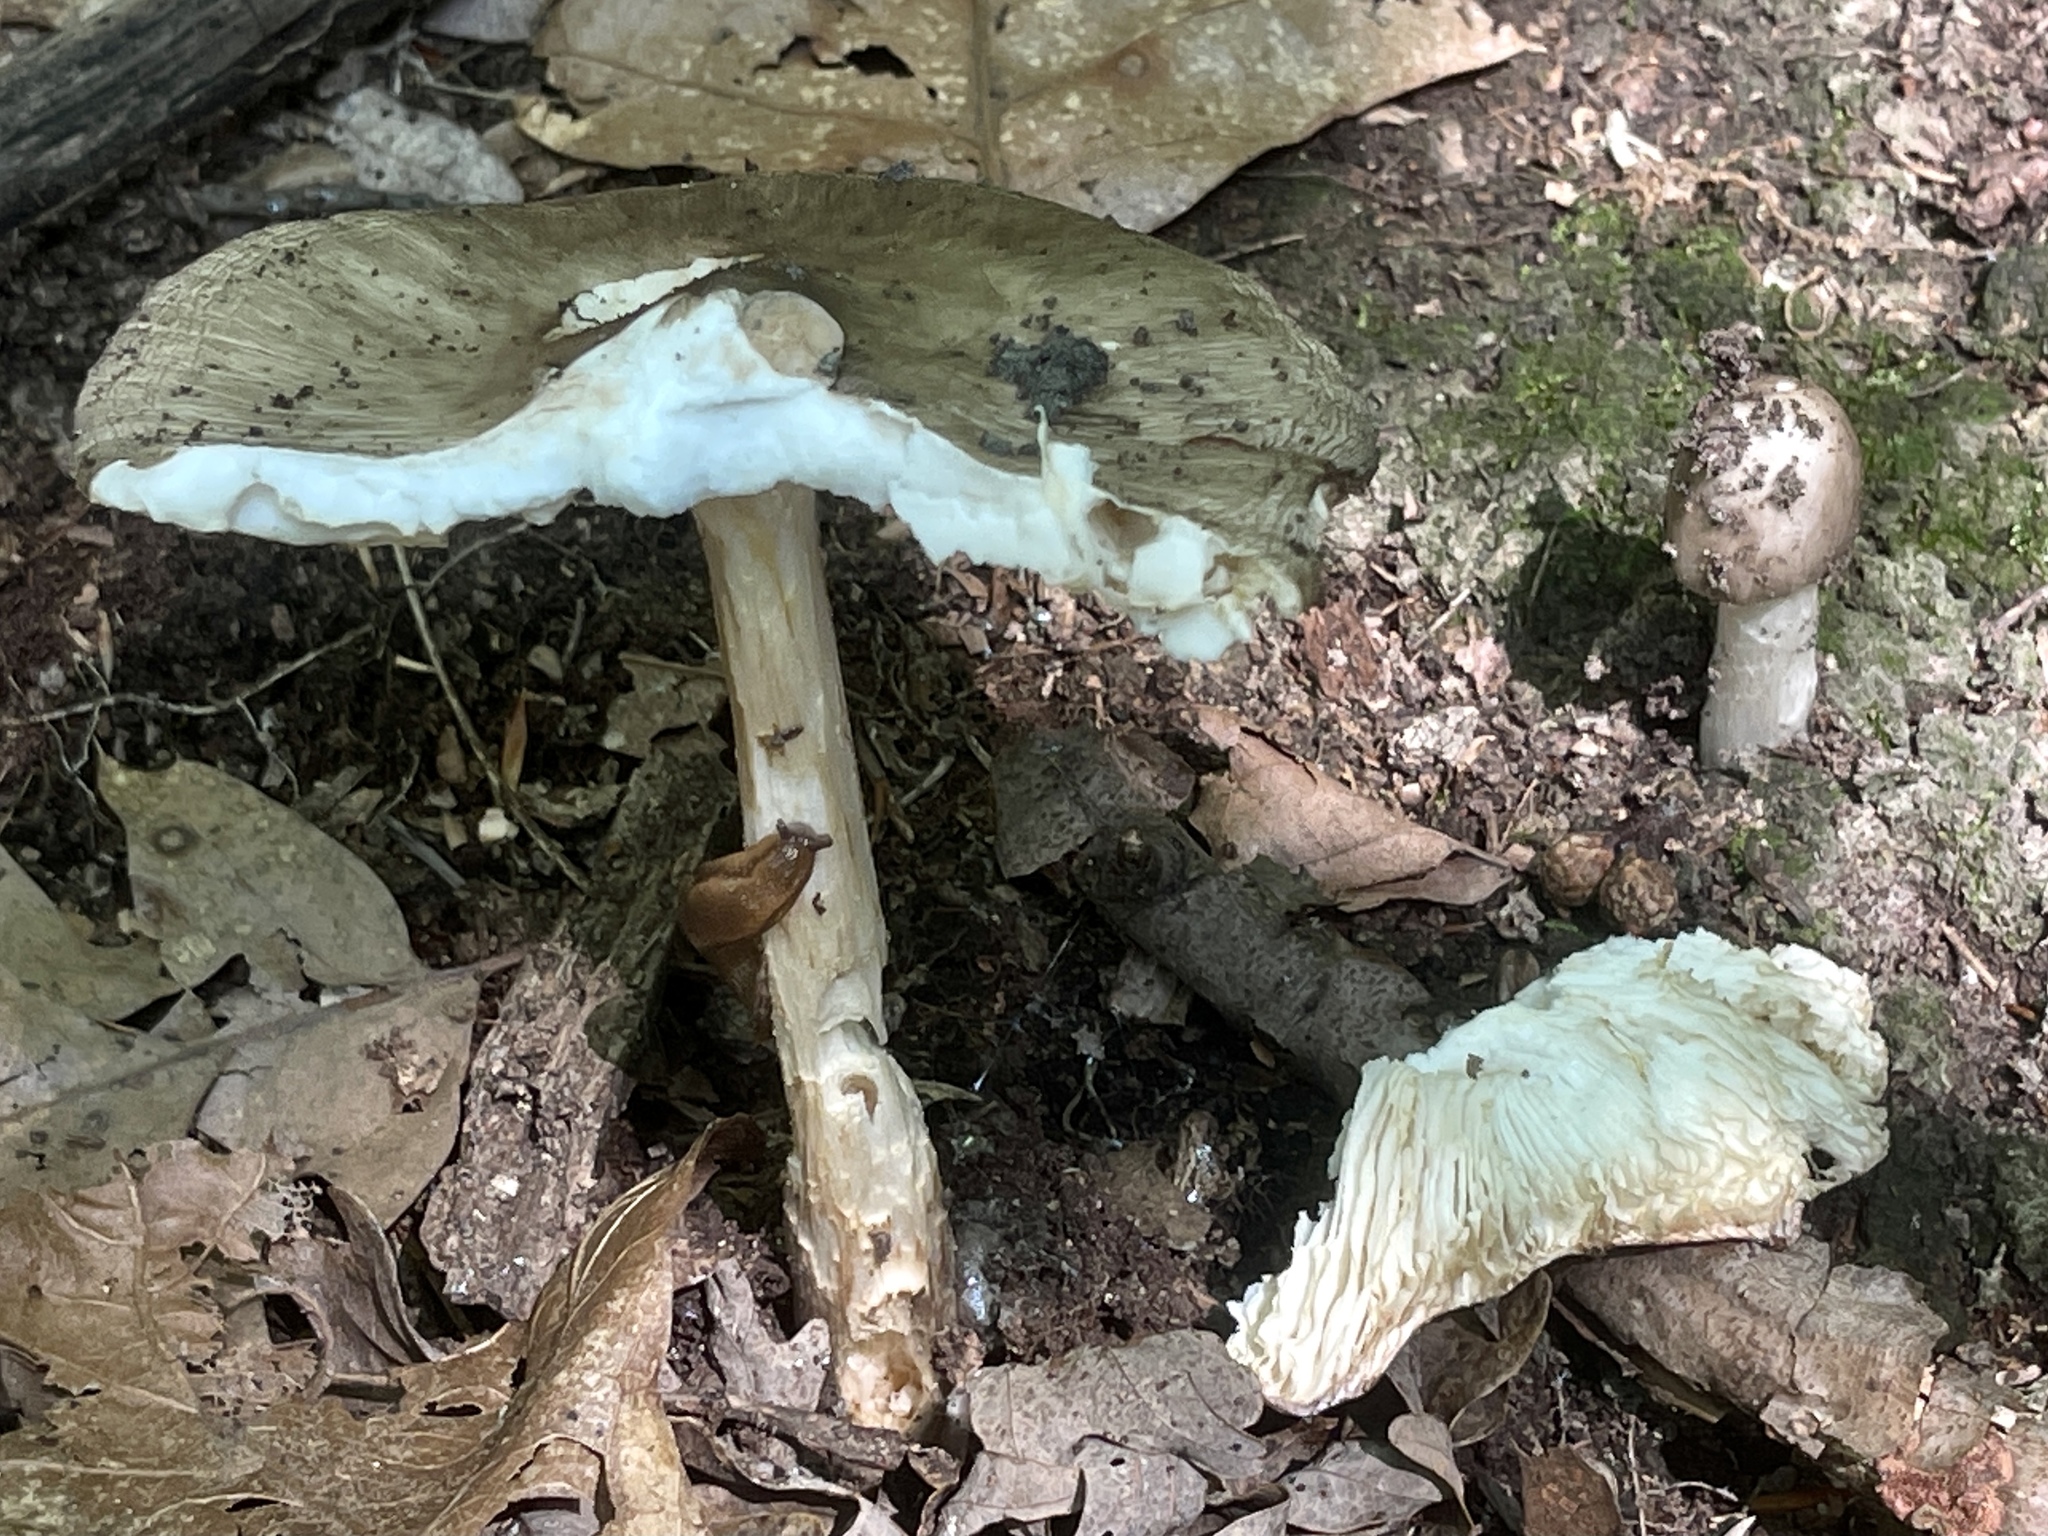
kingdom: Fungi
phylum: Basidiomycota
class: Agaricomycetes
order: Agaricales
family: Tricholomataceae
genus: Megacollybia
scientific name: Megacollybia rodmanii
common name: Eastern american platterful mushroom
